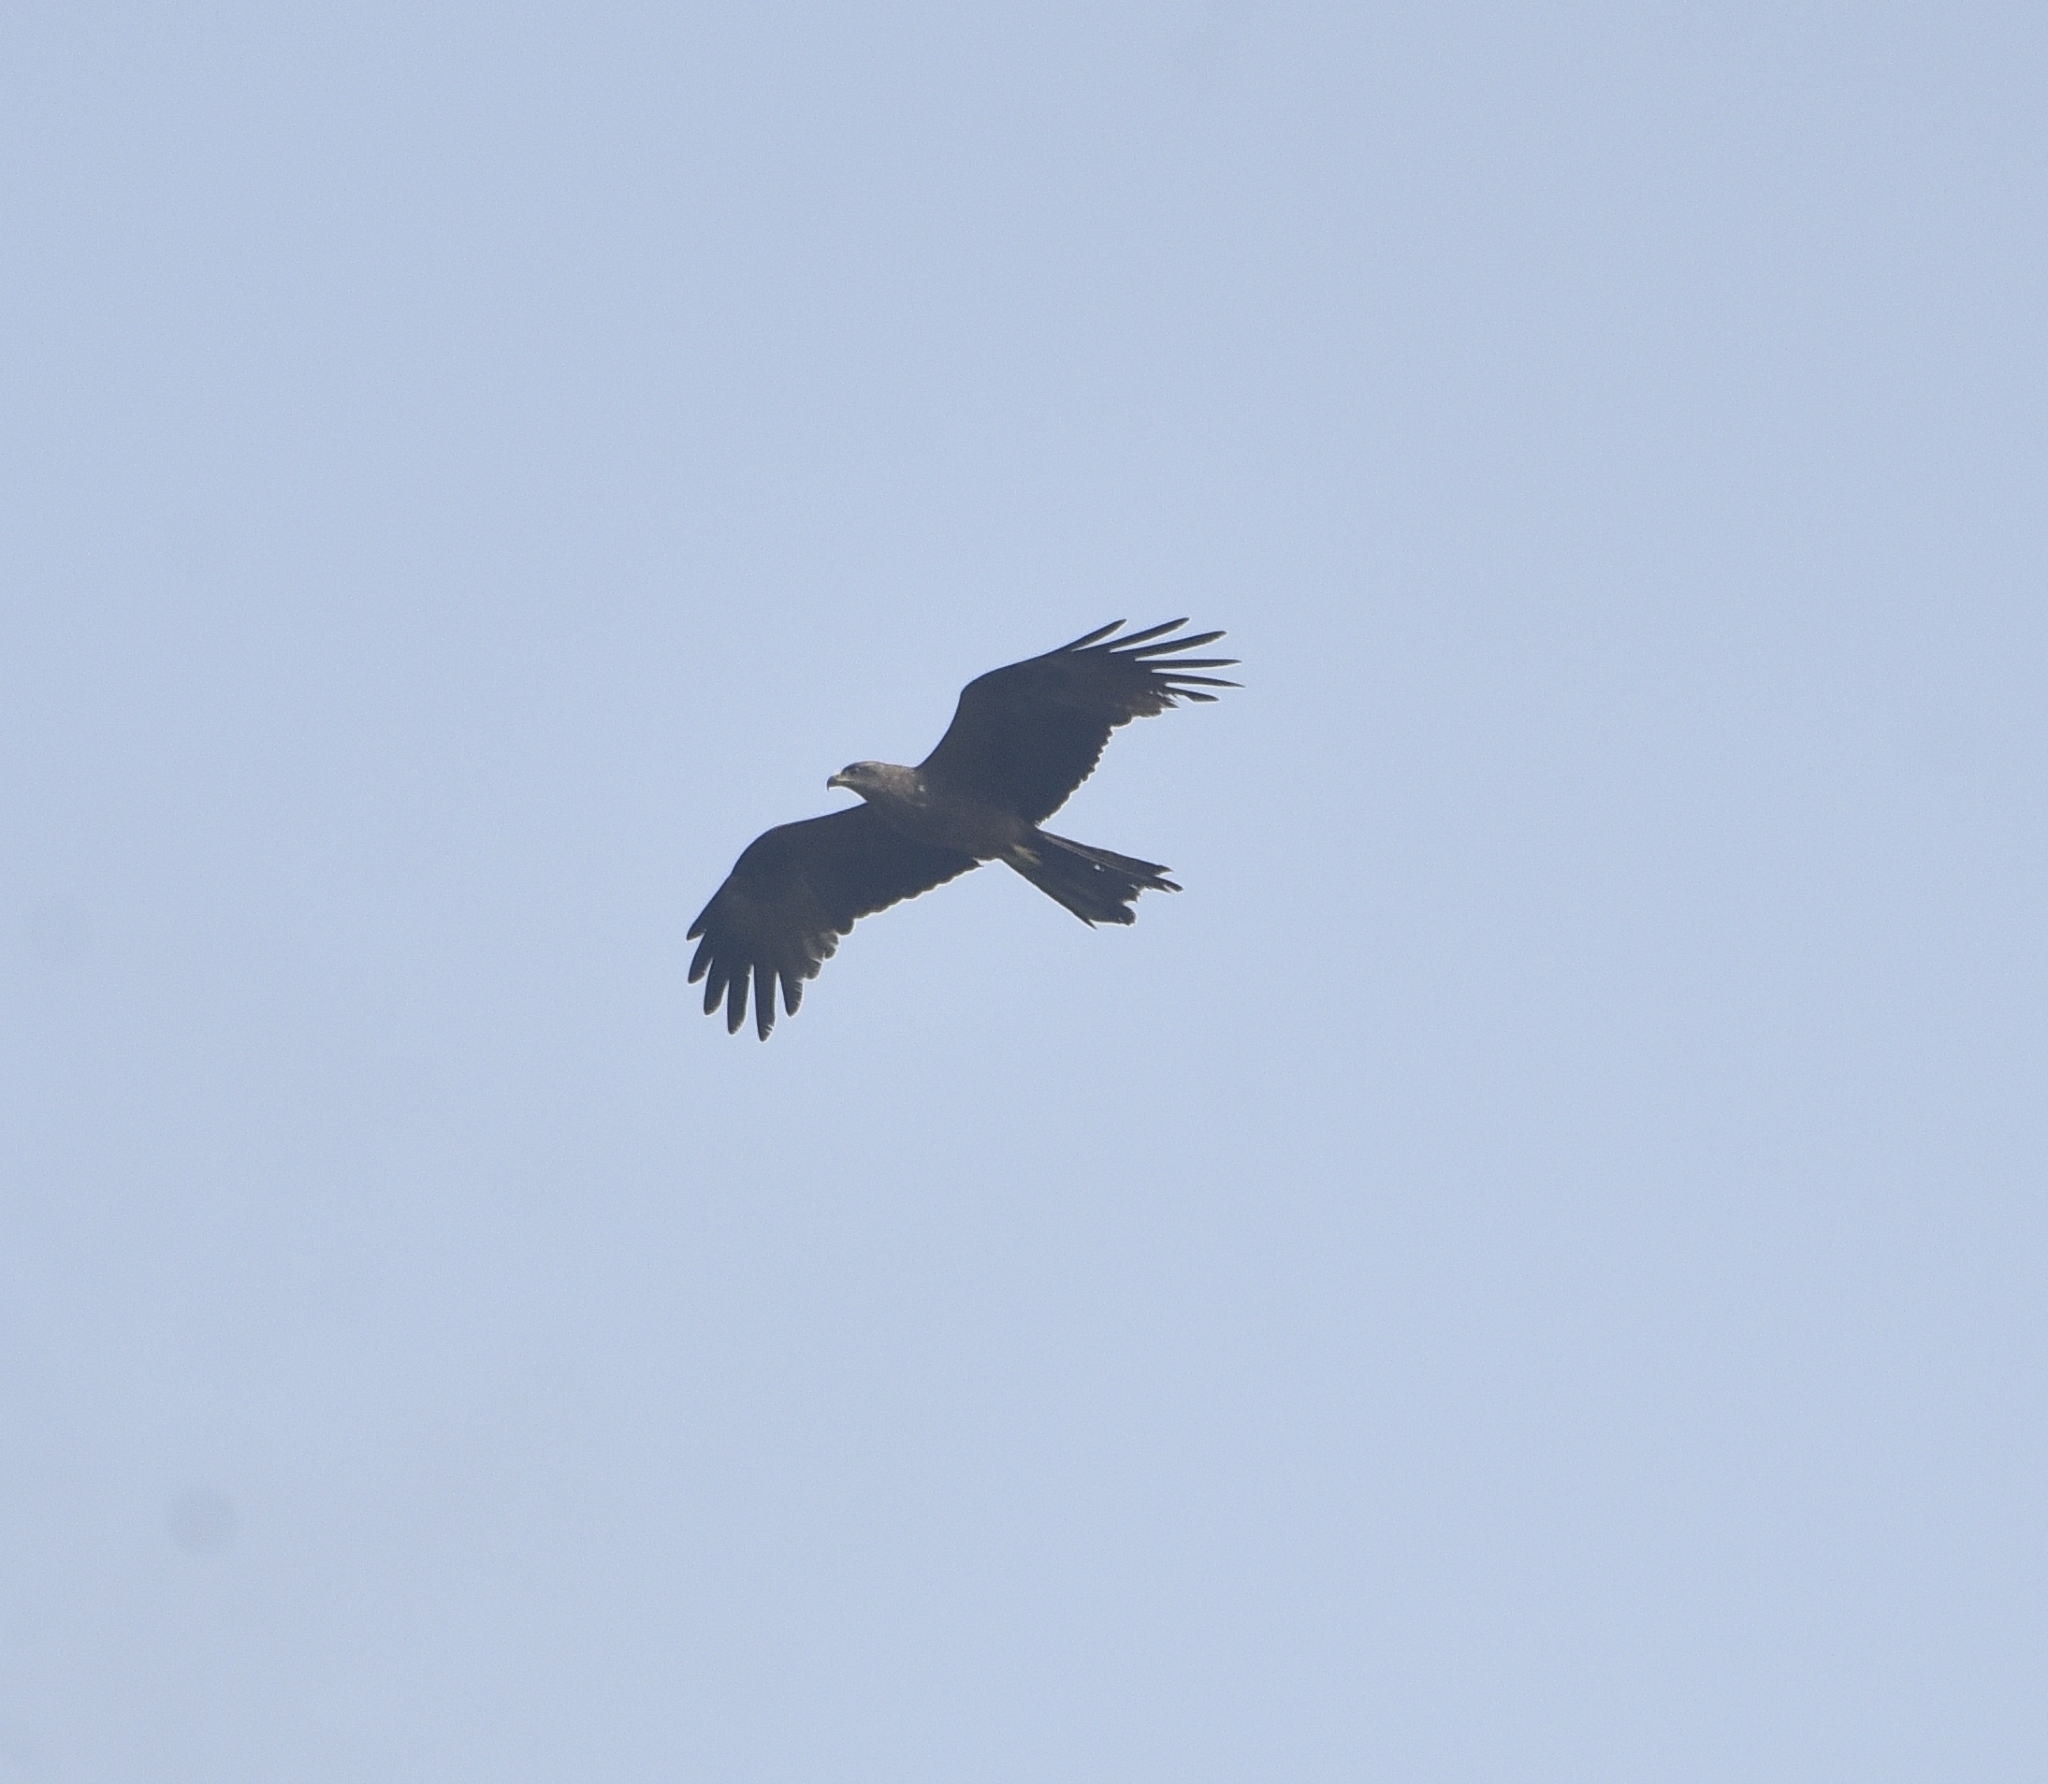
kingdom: Animalia
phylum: Chordata
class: Aves
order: Accipitriformes
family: Accipitridae
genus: Milvus
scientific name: Milvus migrans
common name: Black kite
